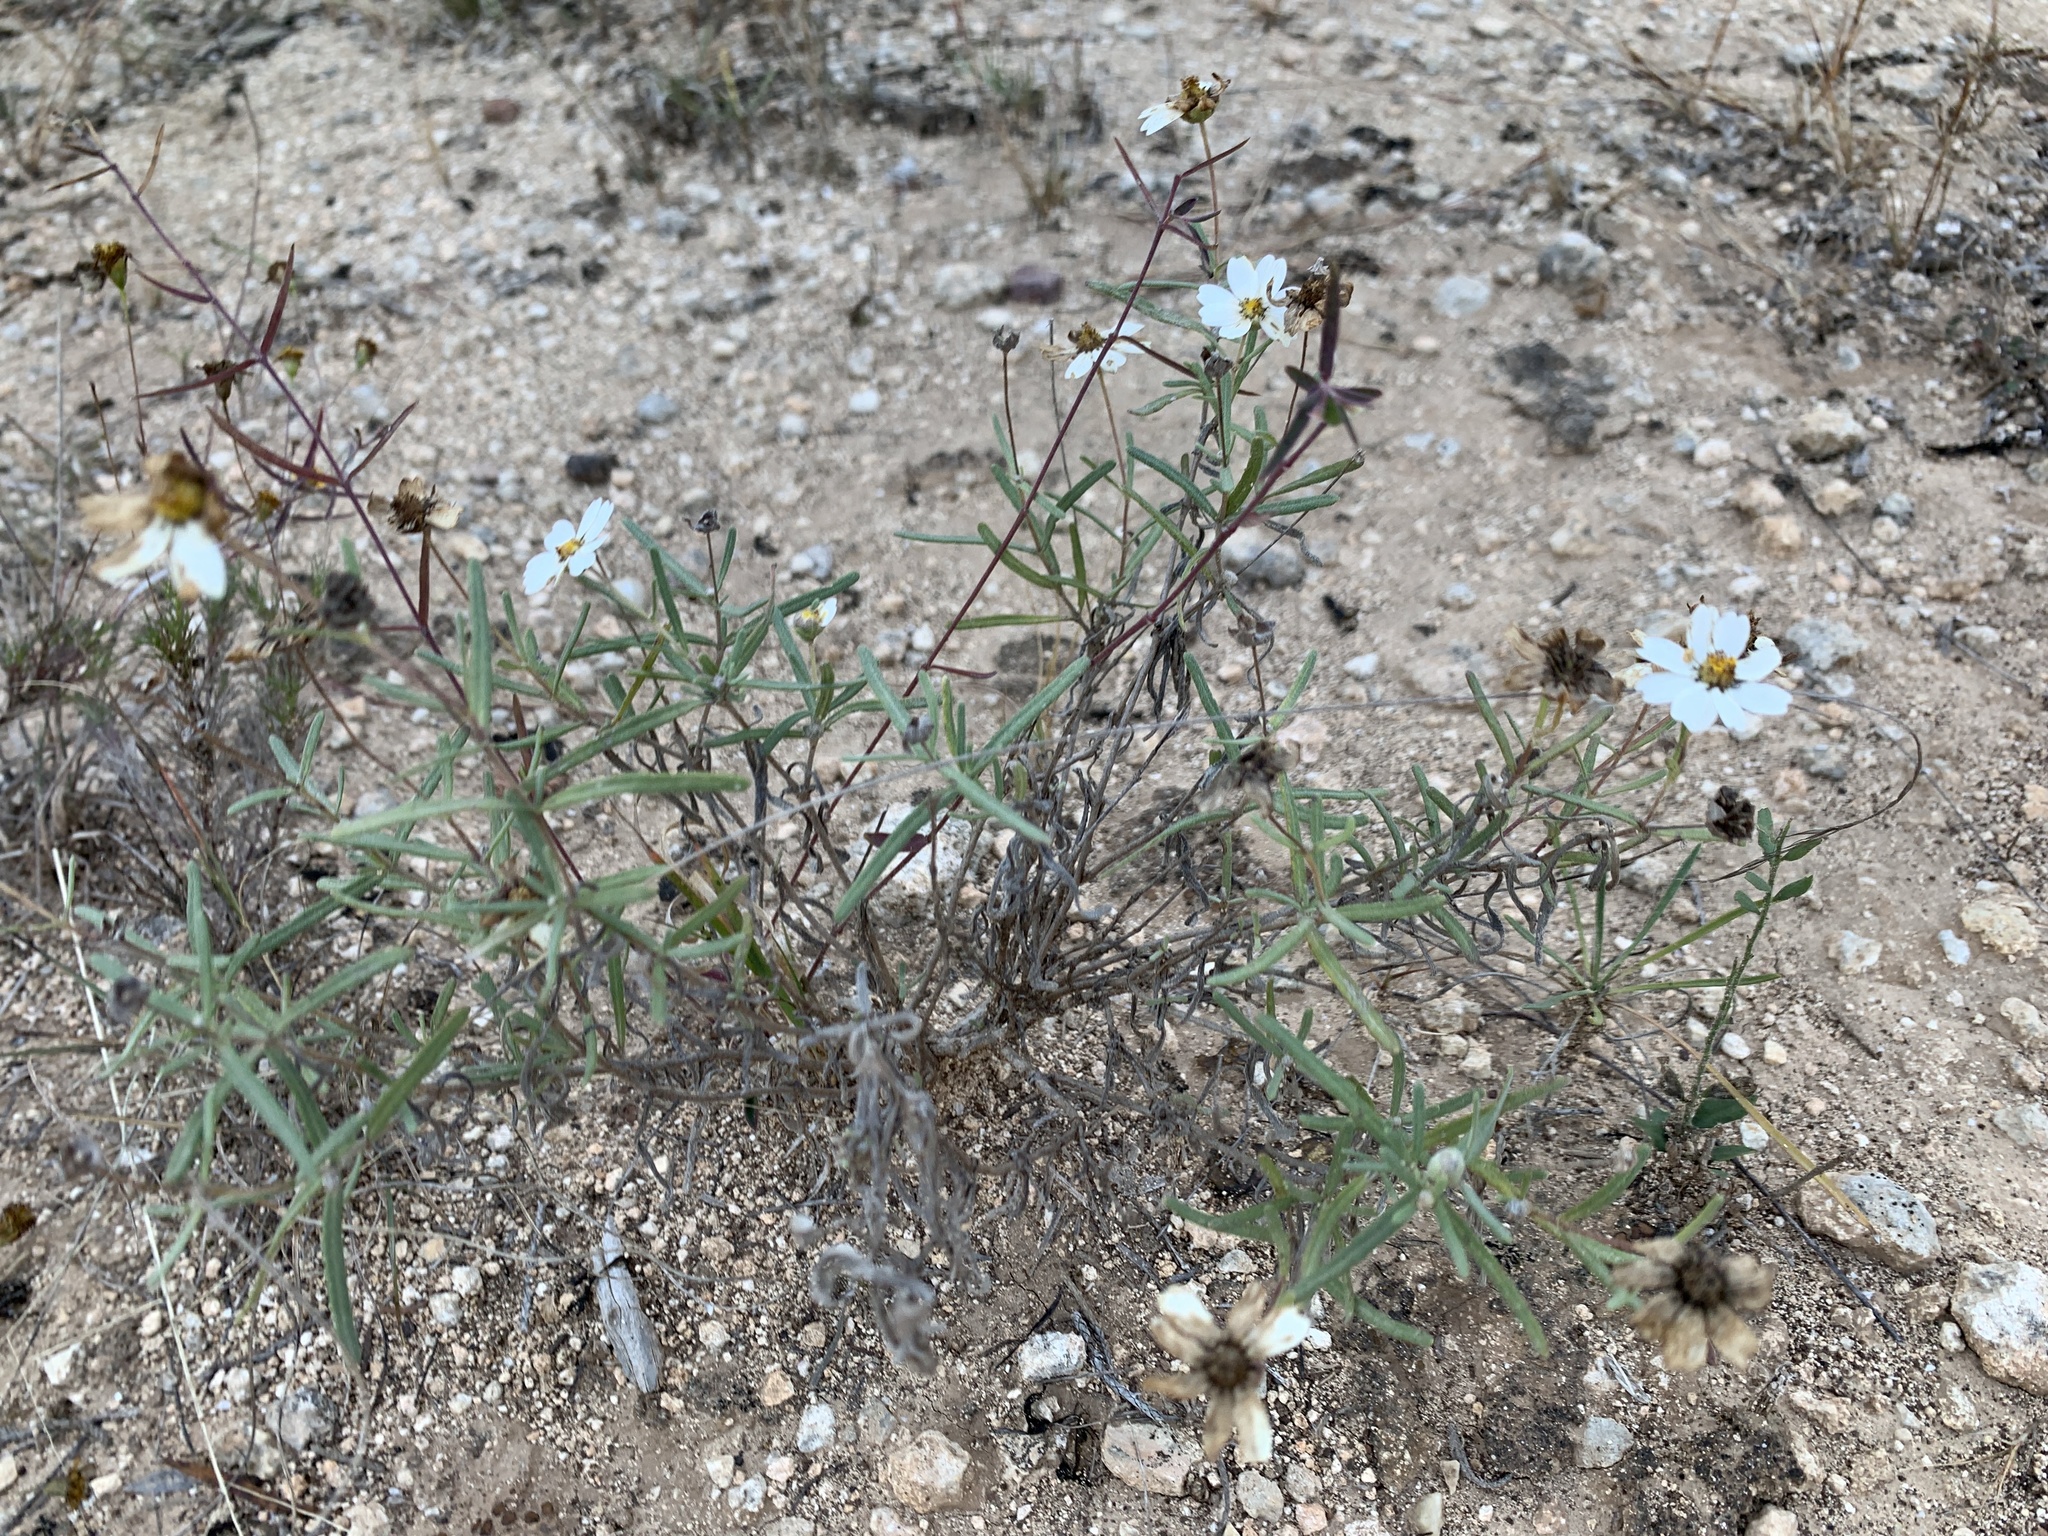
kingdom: Plantae
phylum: Tracheophyta
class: Magnoliopsida
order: Asterales
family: Asteraceae
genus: Melampodium
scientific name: Melampodium leucanthum
